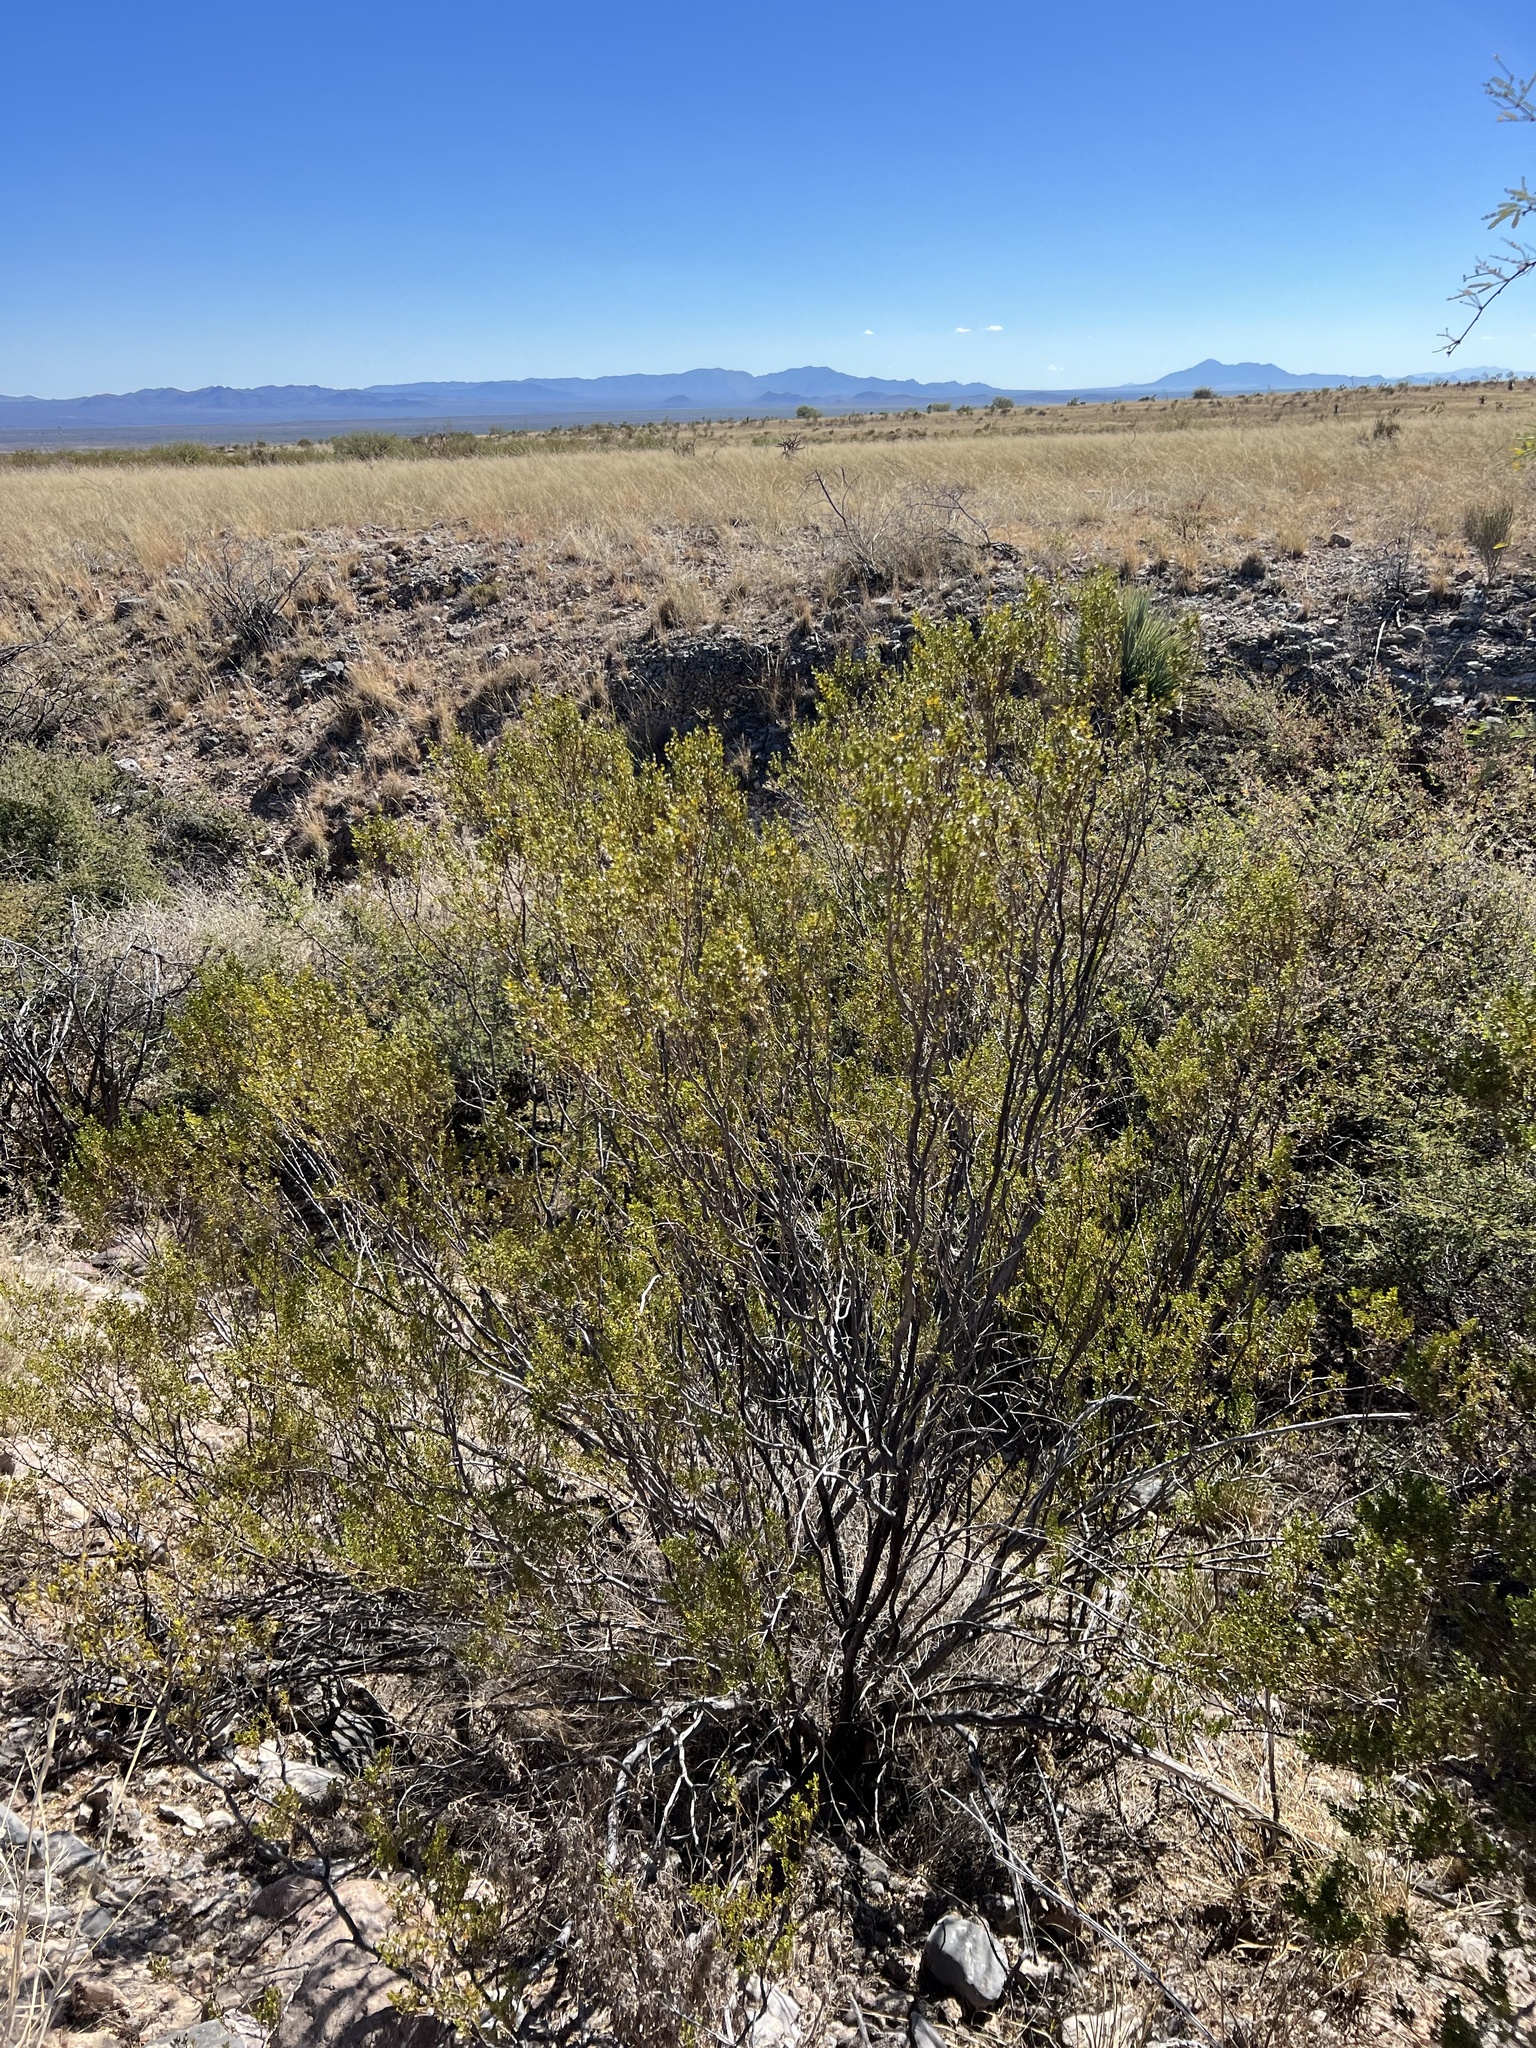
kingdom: Plantae
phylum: Tracheophyta
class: Magnoliopsida
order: Zygophyllales
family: Zygophyllaceae
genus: Larrea
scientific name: Larrea tridentata
